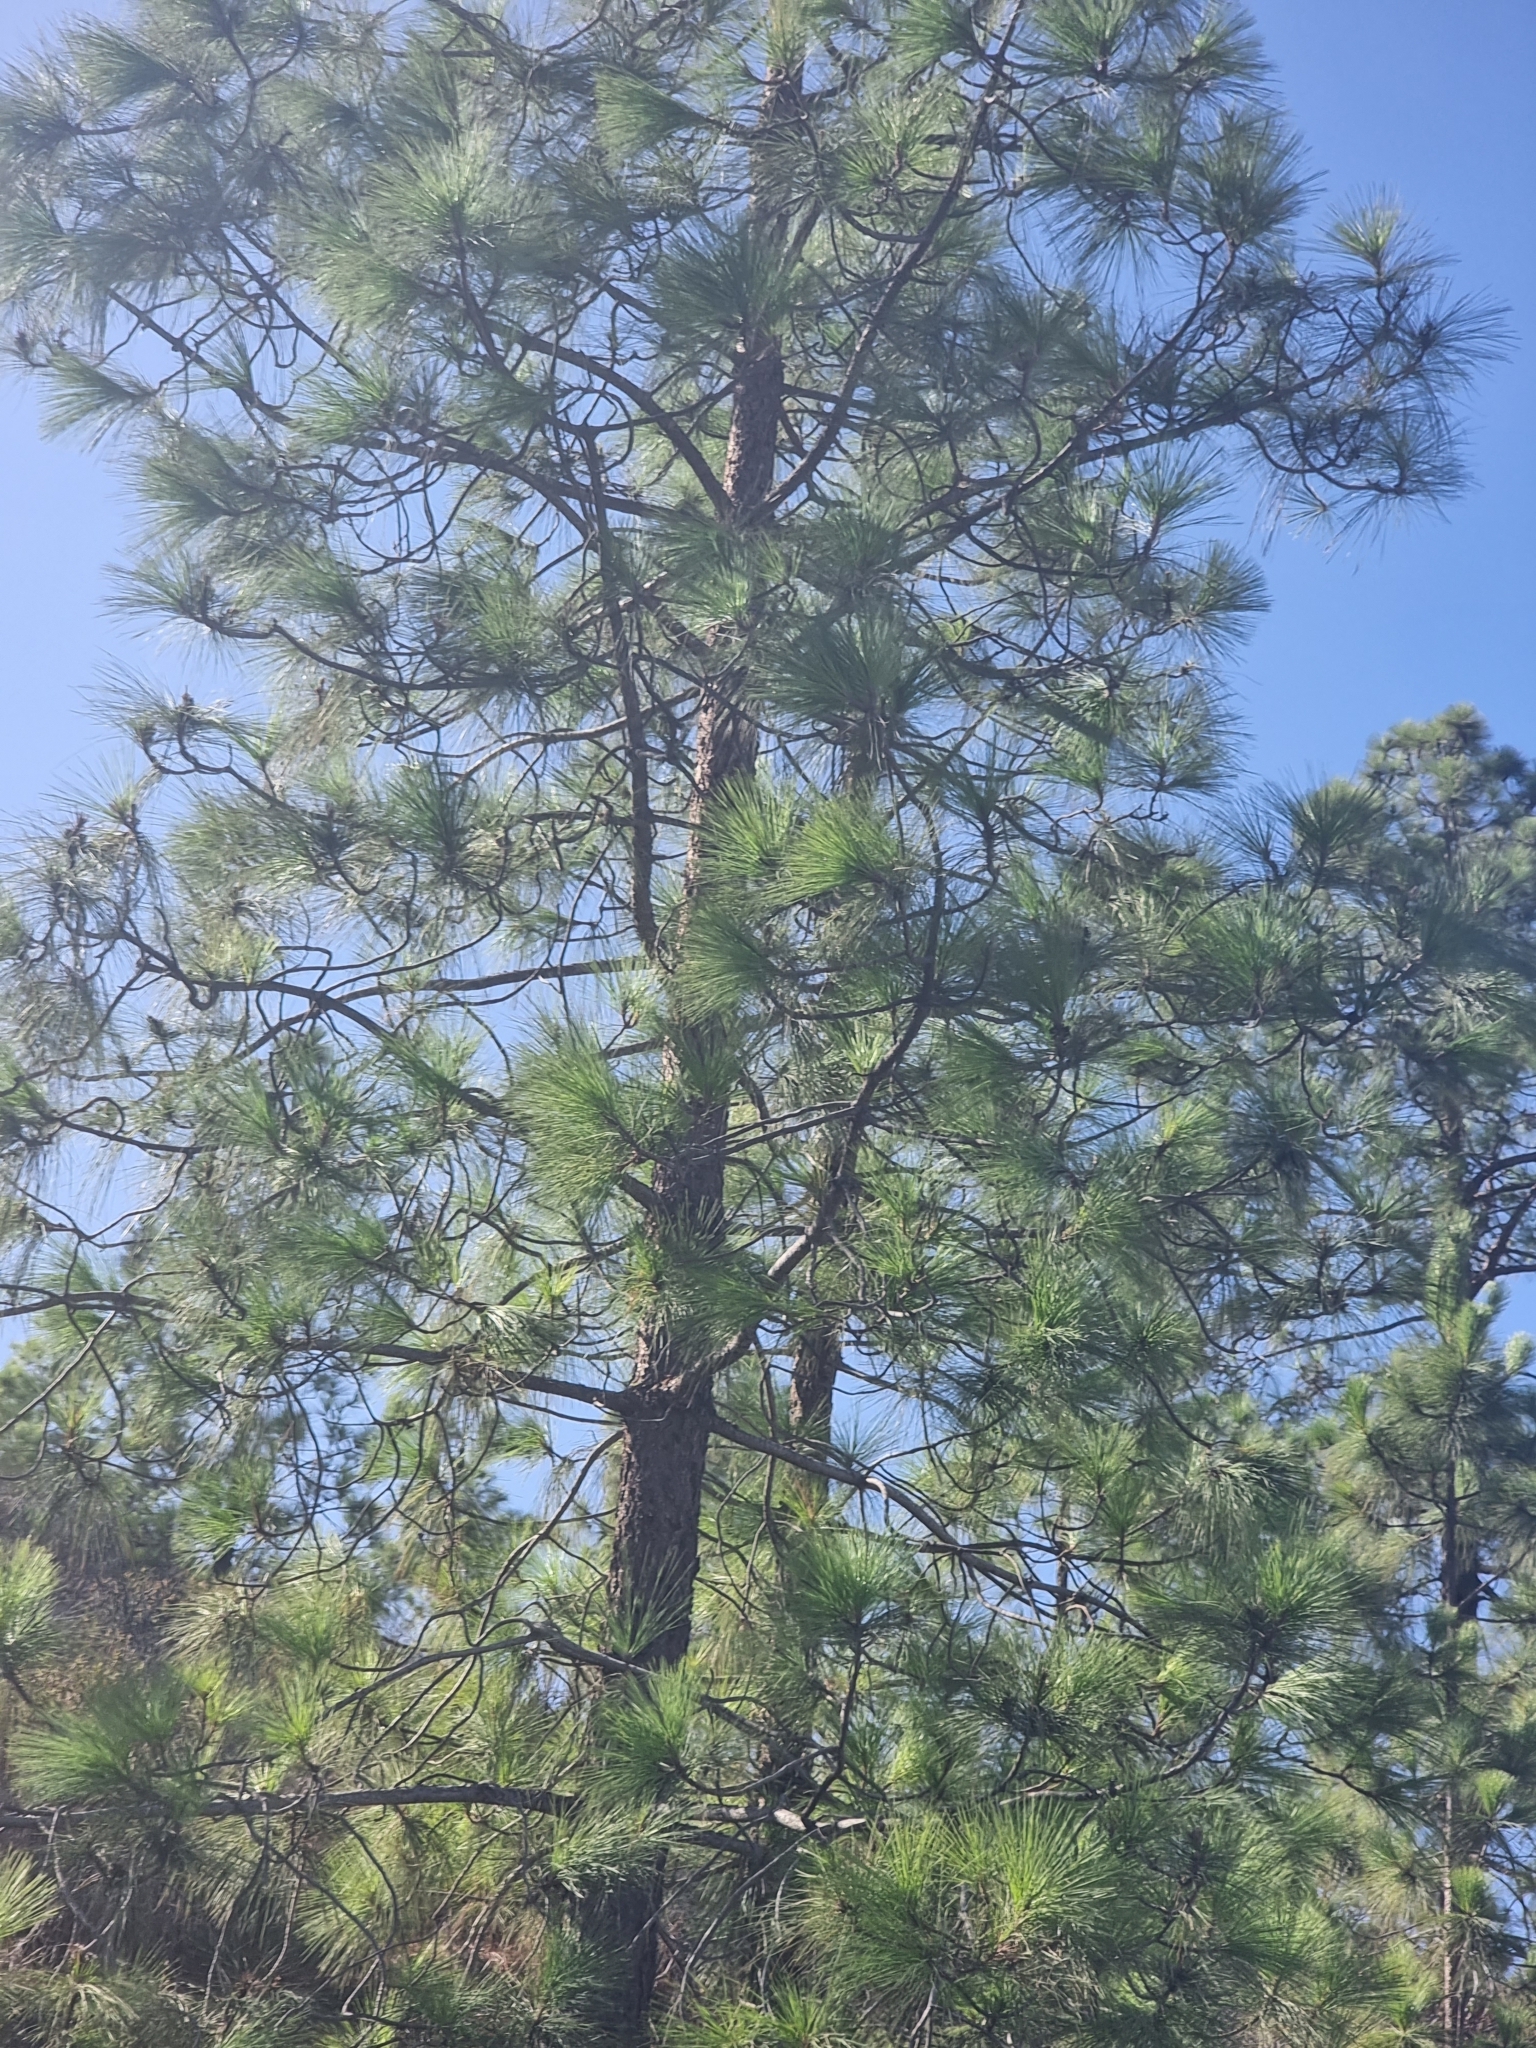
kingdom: Plantae
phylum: Tracheophyta
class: Pinopsida
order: Pinales
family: Pinaceae
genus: Pinus
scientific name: Pinus canariensis
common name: Canary islands pine
